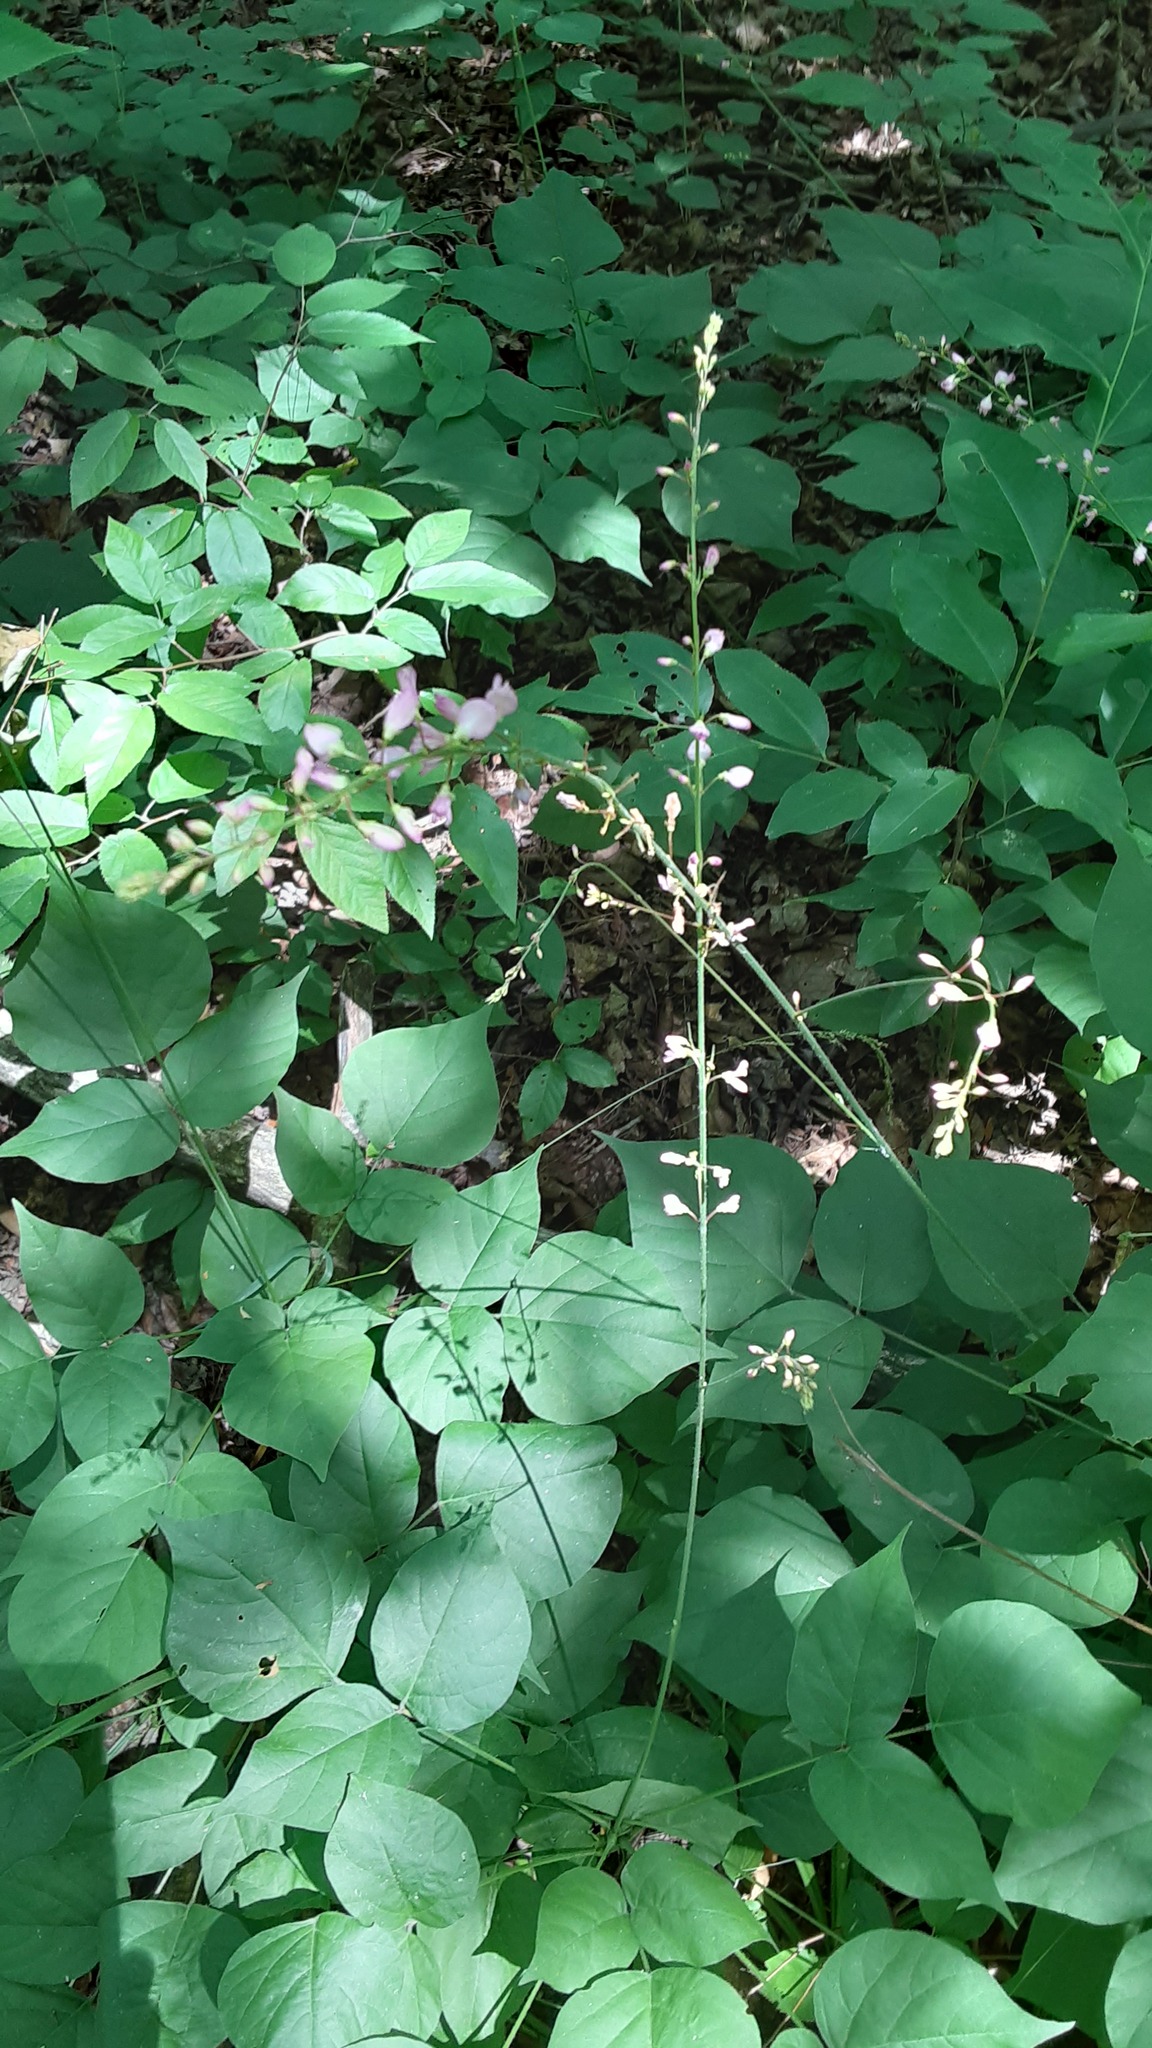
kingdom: Plantae
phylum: Tracheophyta
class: Magnoliopsida
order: Fabales
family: Fabaceae
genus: Hylodesmum
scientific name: Hylodesmum glutinosum
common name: Clustered-leaved tick-trefoil
